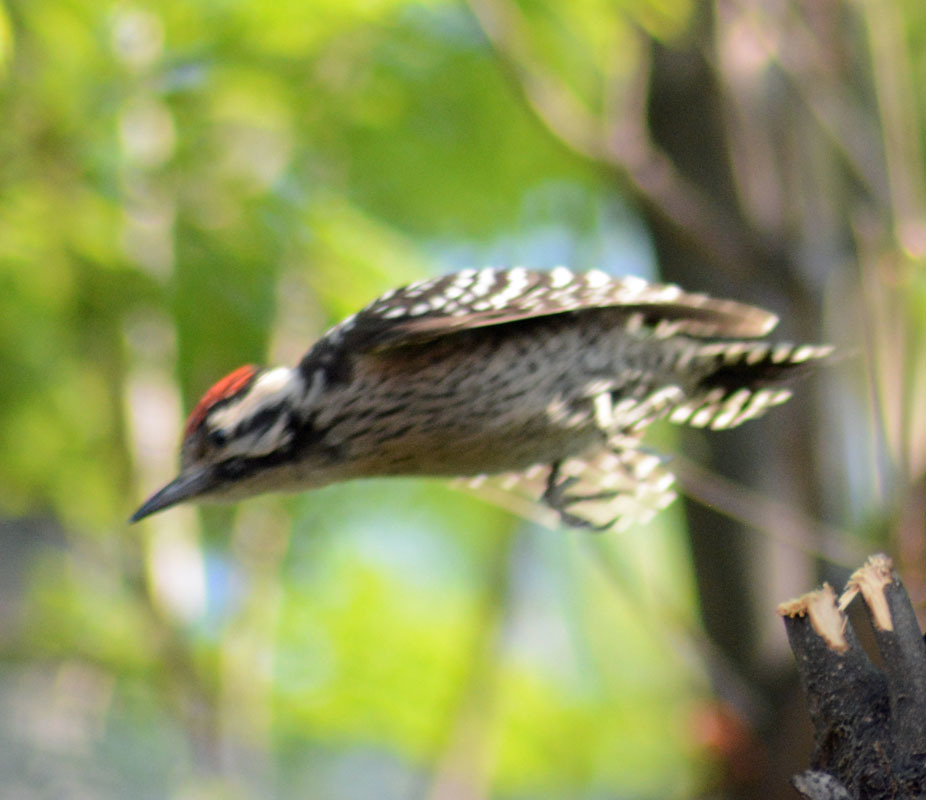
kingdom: Animalia
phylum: Chordata
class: Aves
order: Piciformes
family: Picidae
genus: Dryobates
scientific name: Dryobates scalaris
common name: Ladder-backed woodpecker
